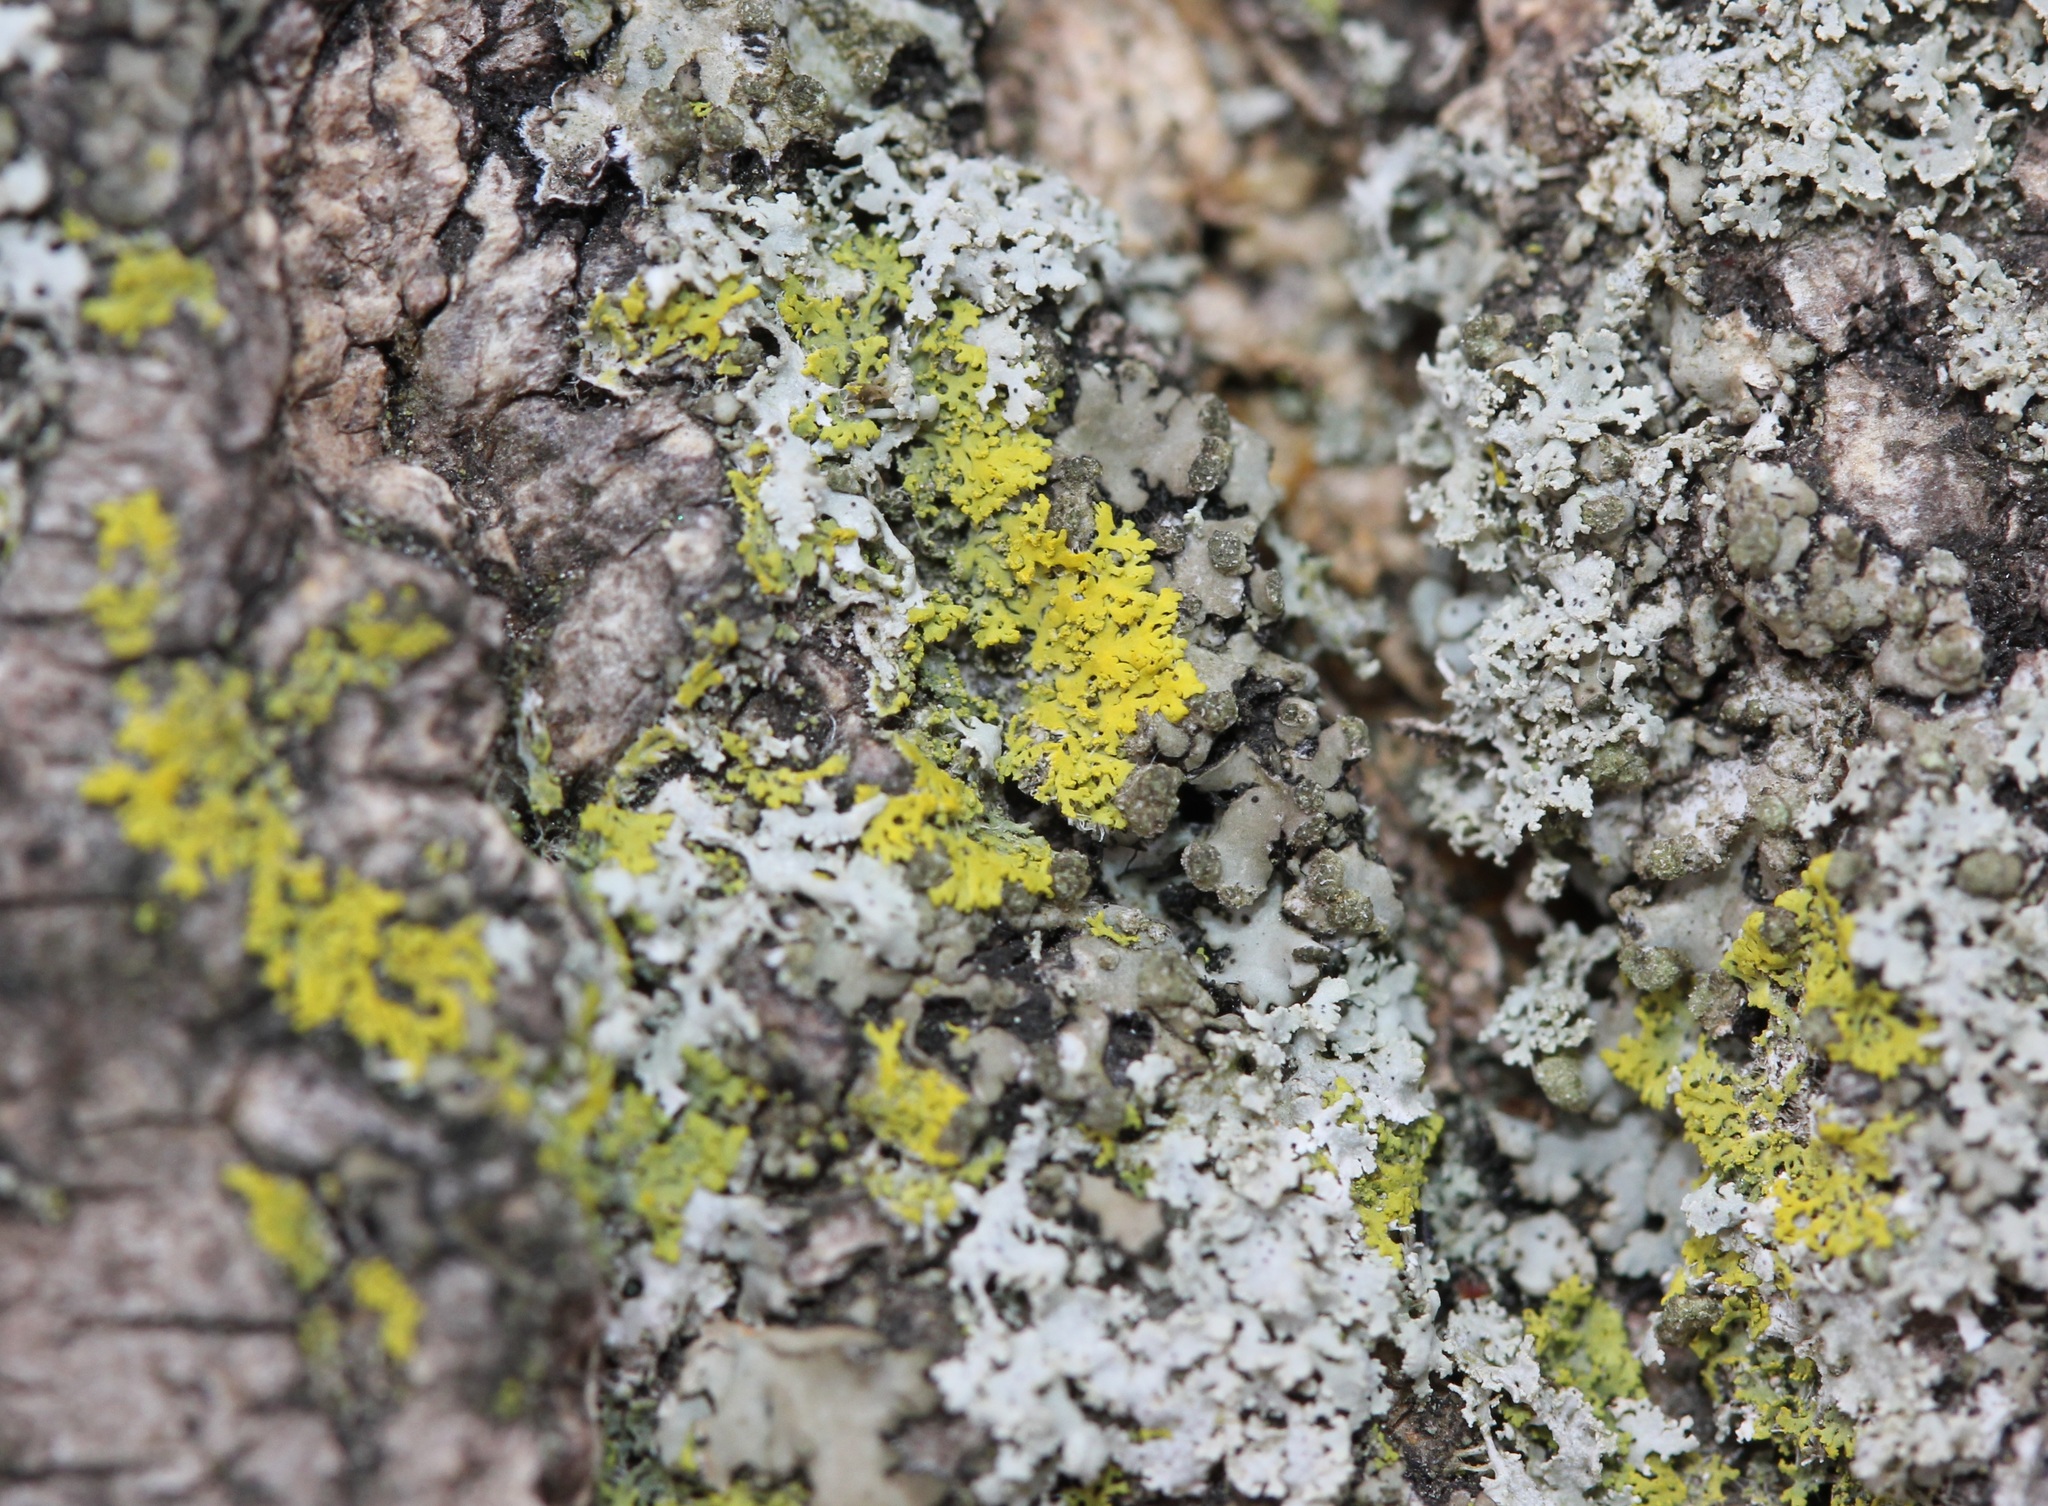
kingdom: Fungi
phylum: Ascomycota
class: Candelariomycetes
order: Candelariales
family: Candelariaceae
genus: Candelaria
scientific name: Candelaria concolor
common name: Candleflame lichen
